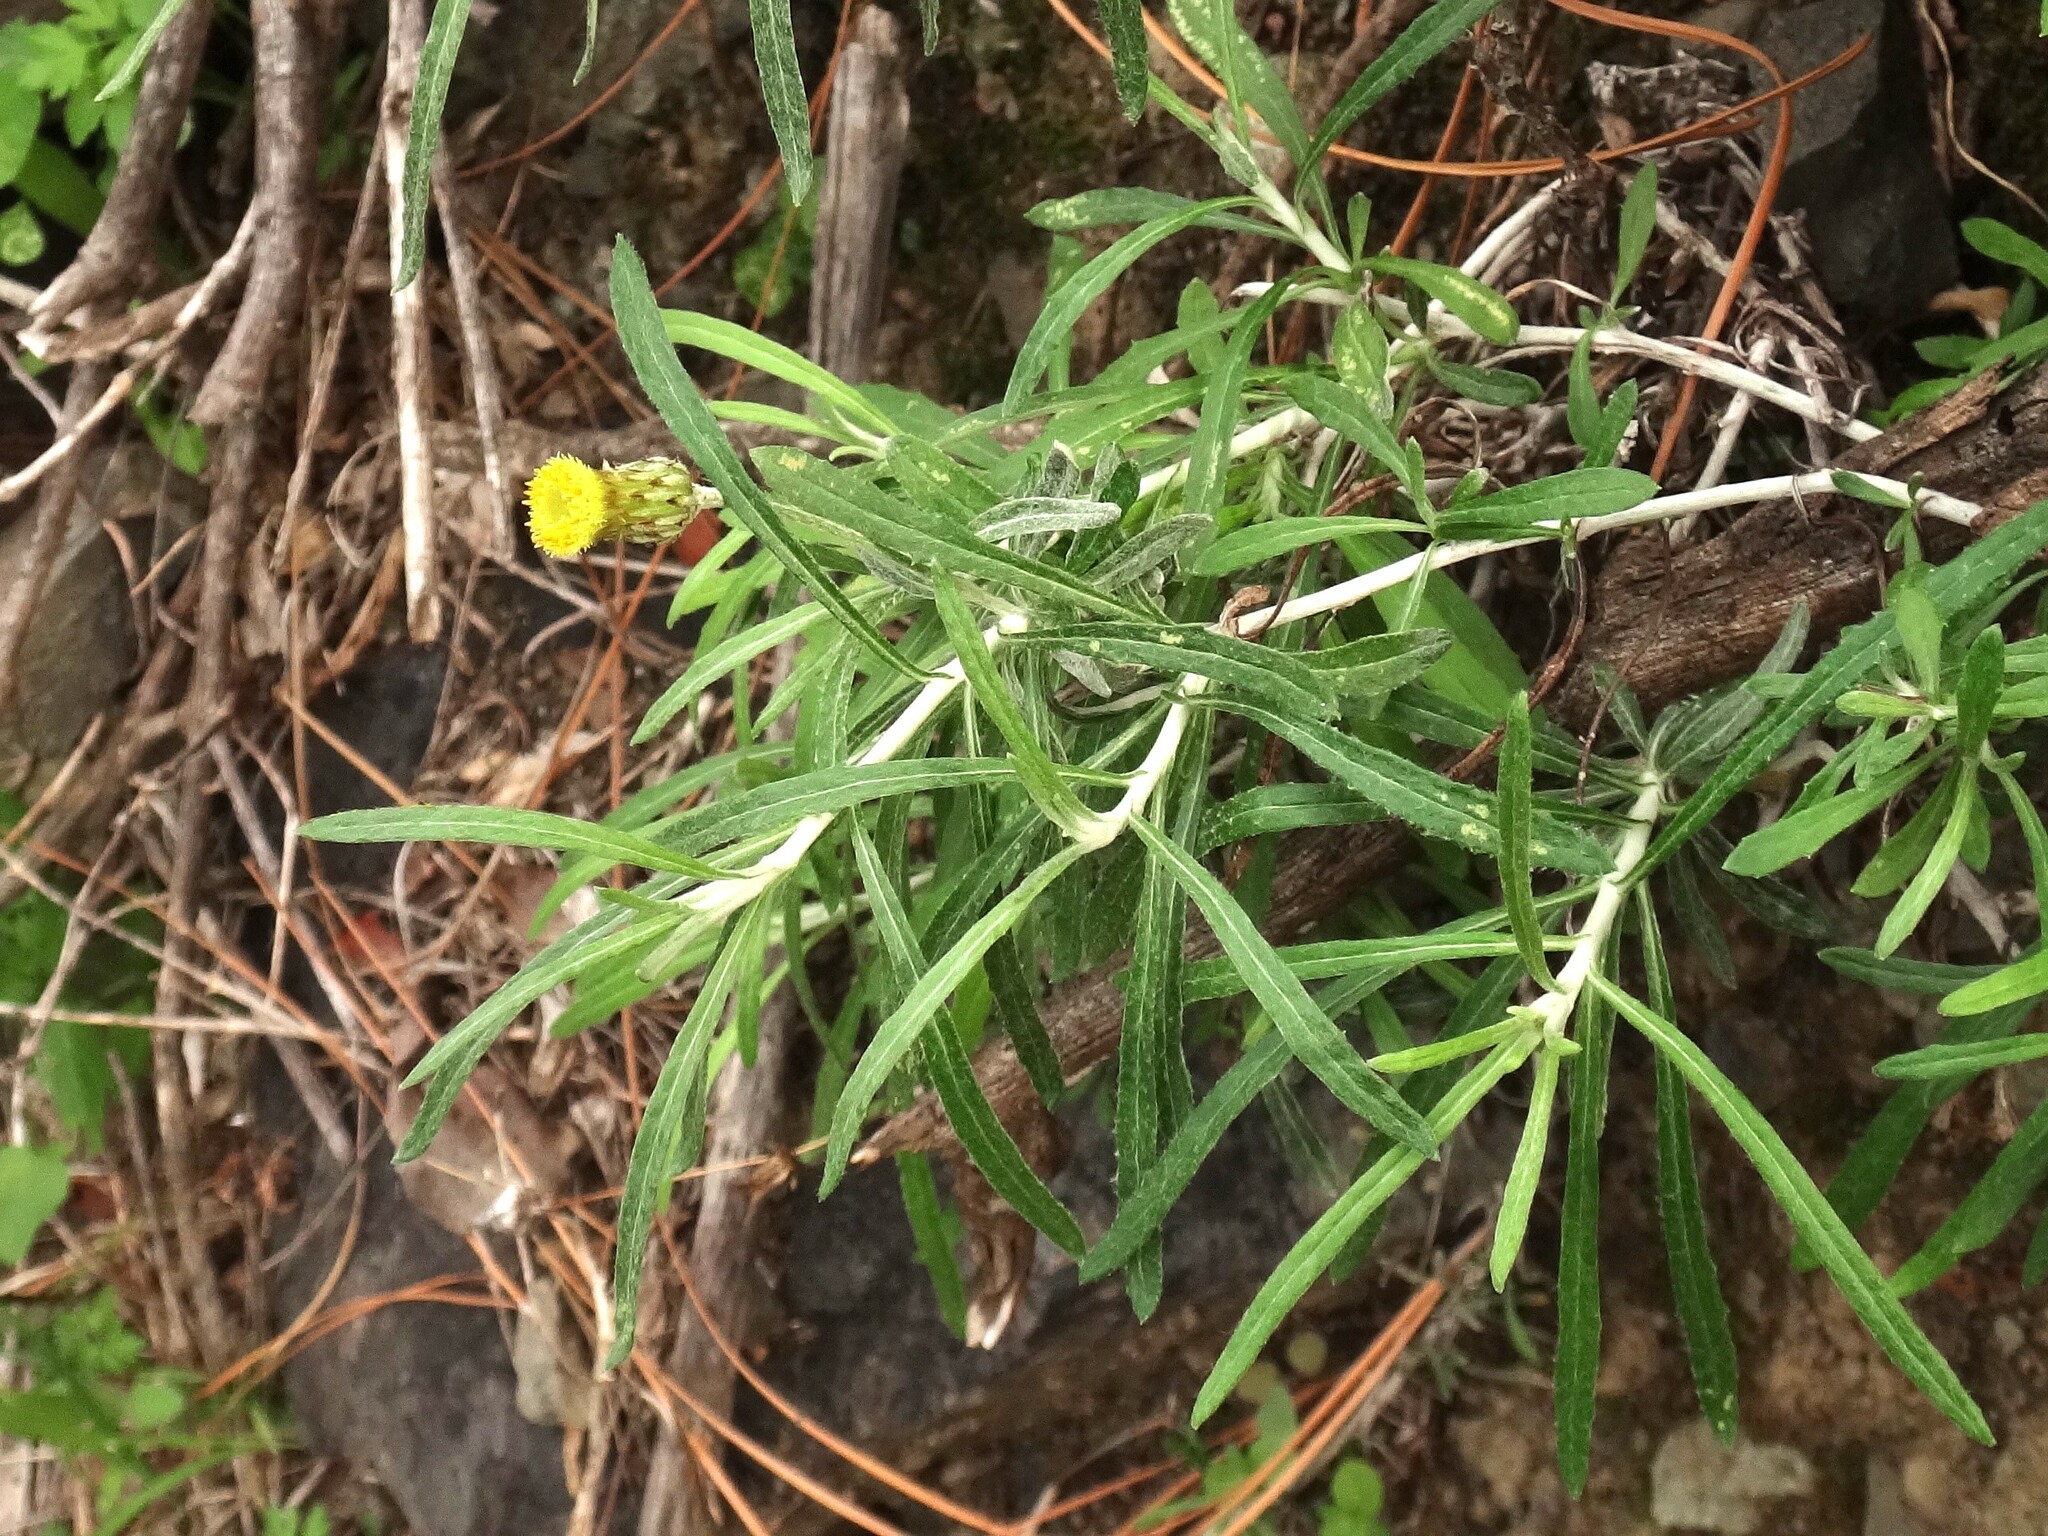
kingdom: Plantae
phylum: Tracheophyta
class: Magnoliopsida
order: Asterales
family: Asteraceae
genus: Phagnalon
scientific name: Phagnalon saxatile
